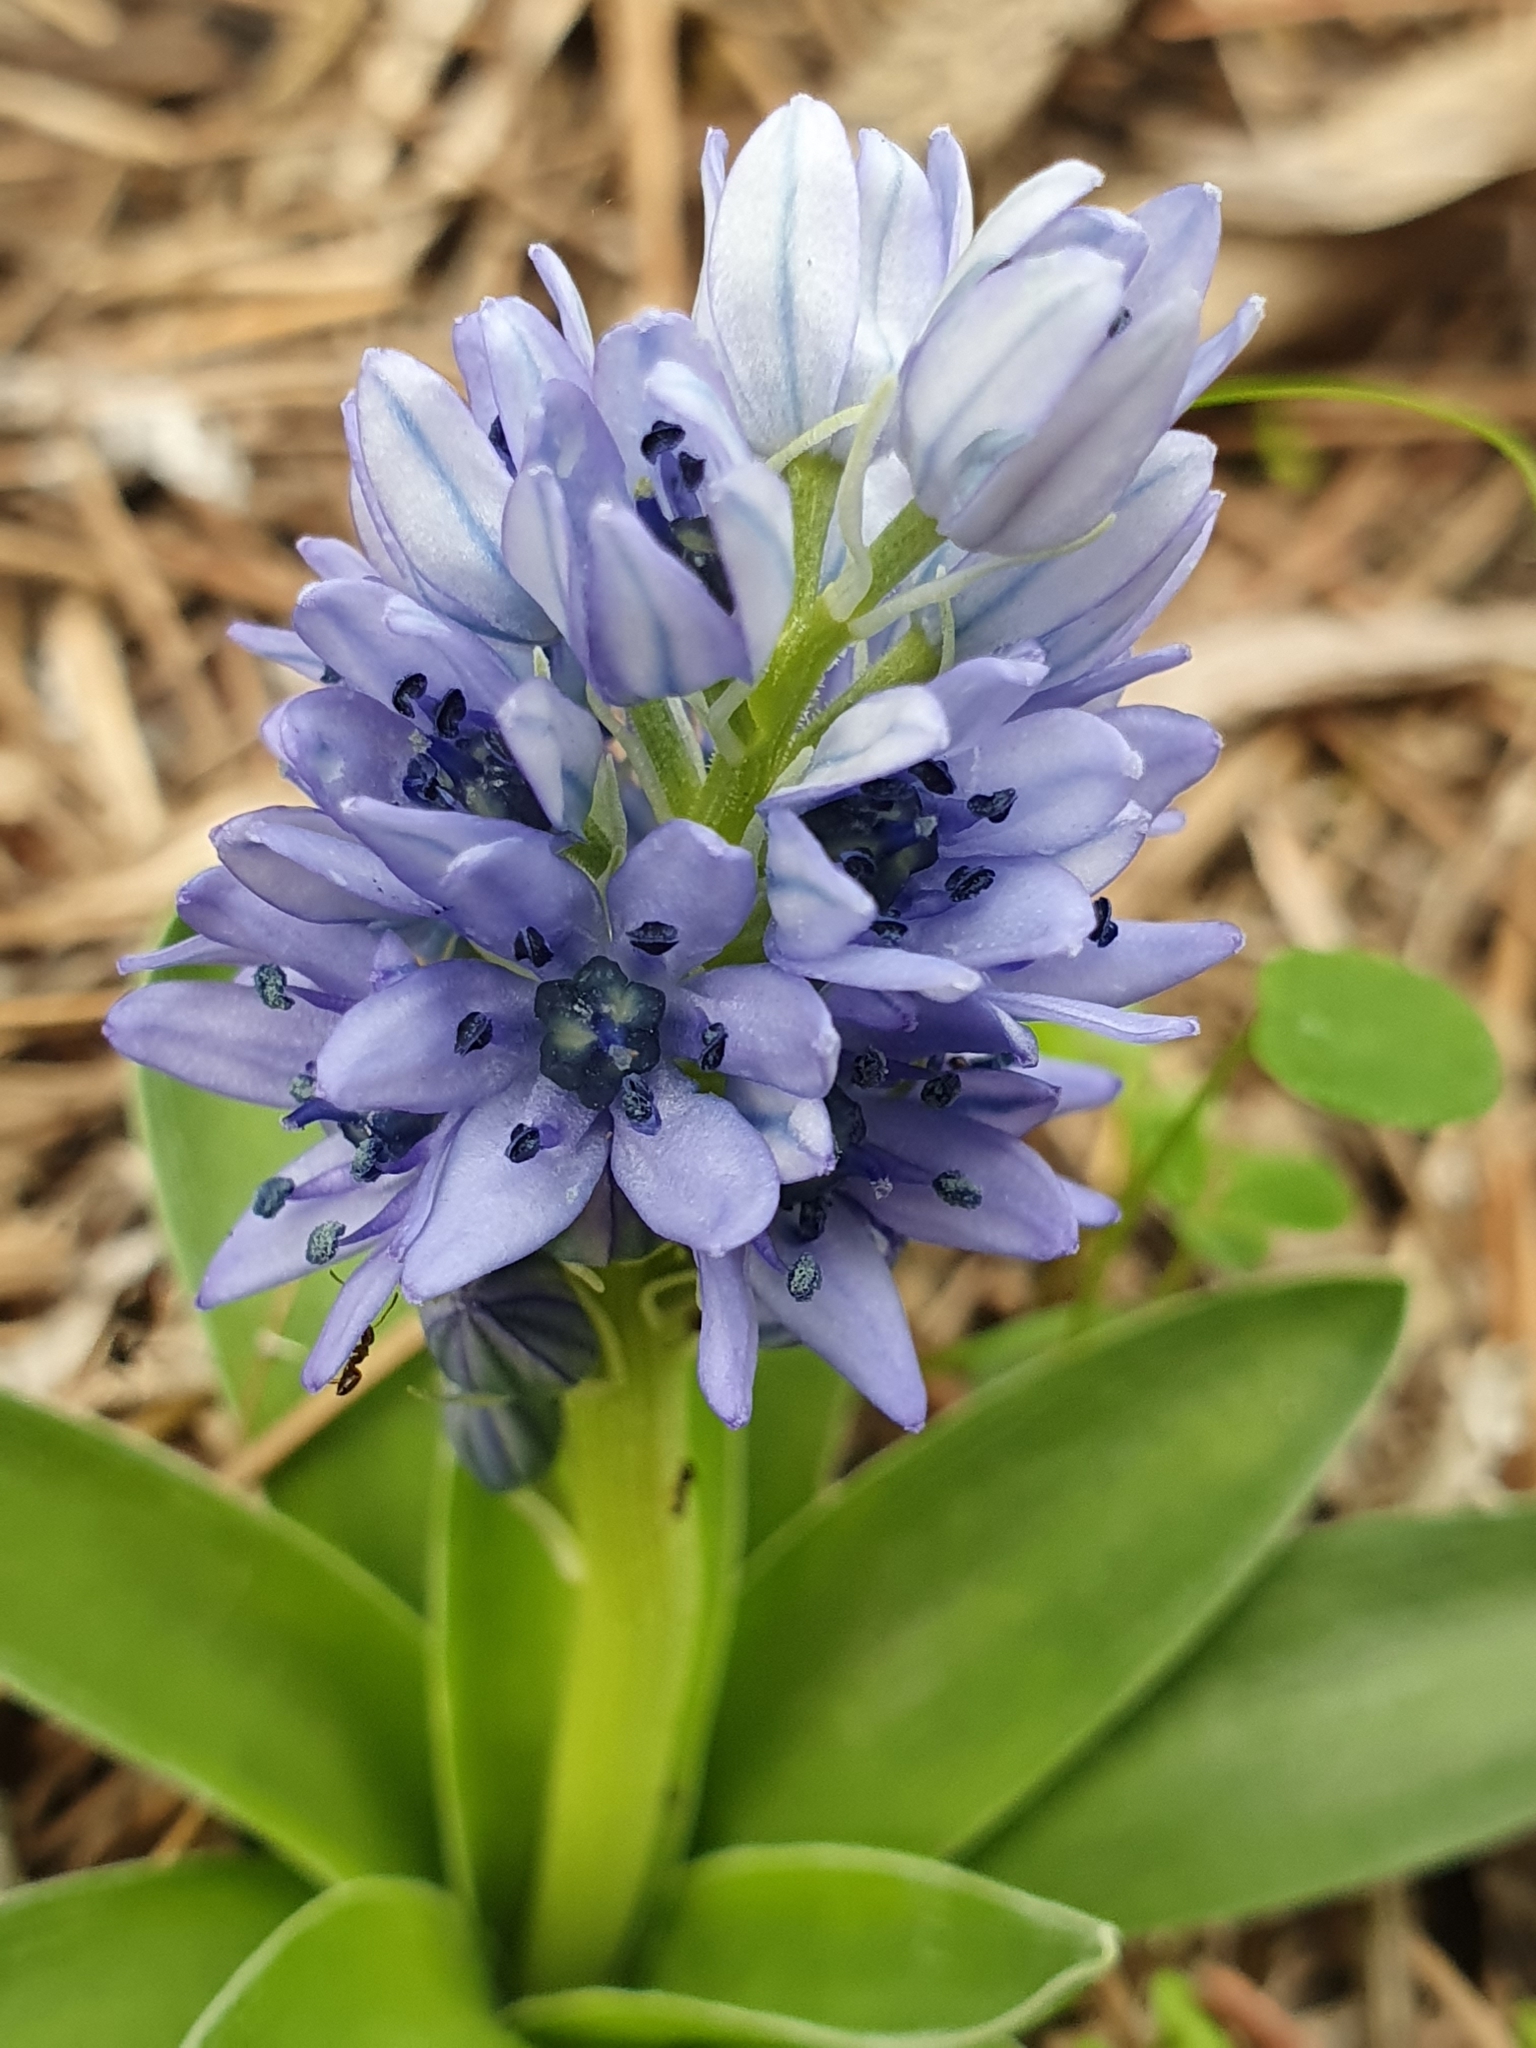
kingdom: Plantae
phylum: Tracheophyta
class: Liliopsida
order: Asparagales
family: Asparagaceae
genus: Hyacinthoides
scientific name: Hyacinthoides lingulata
